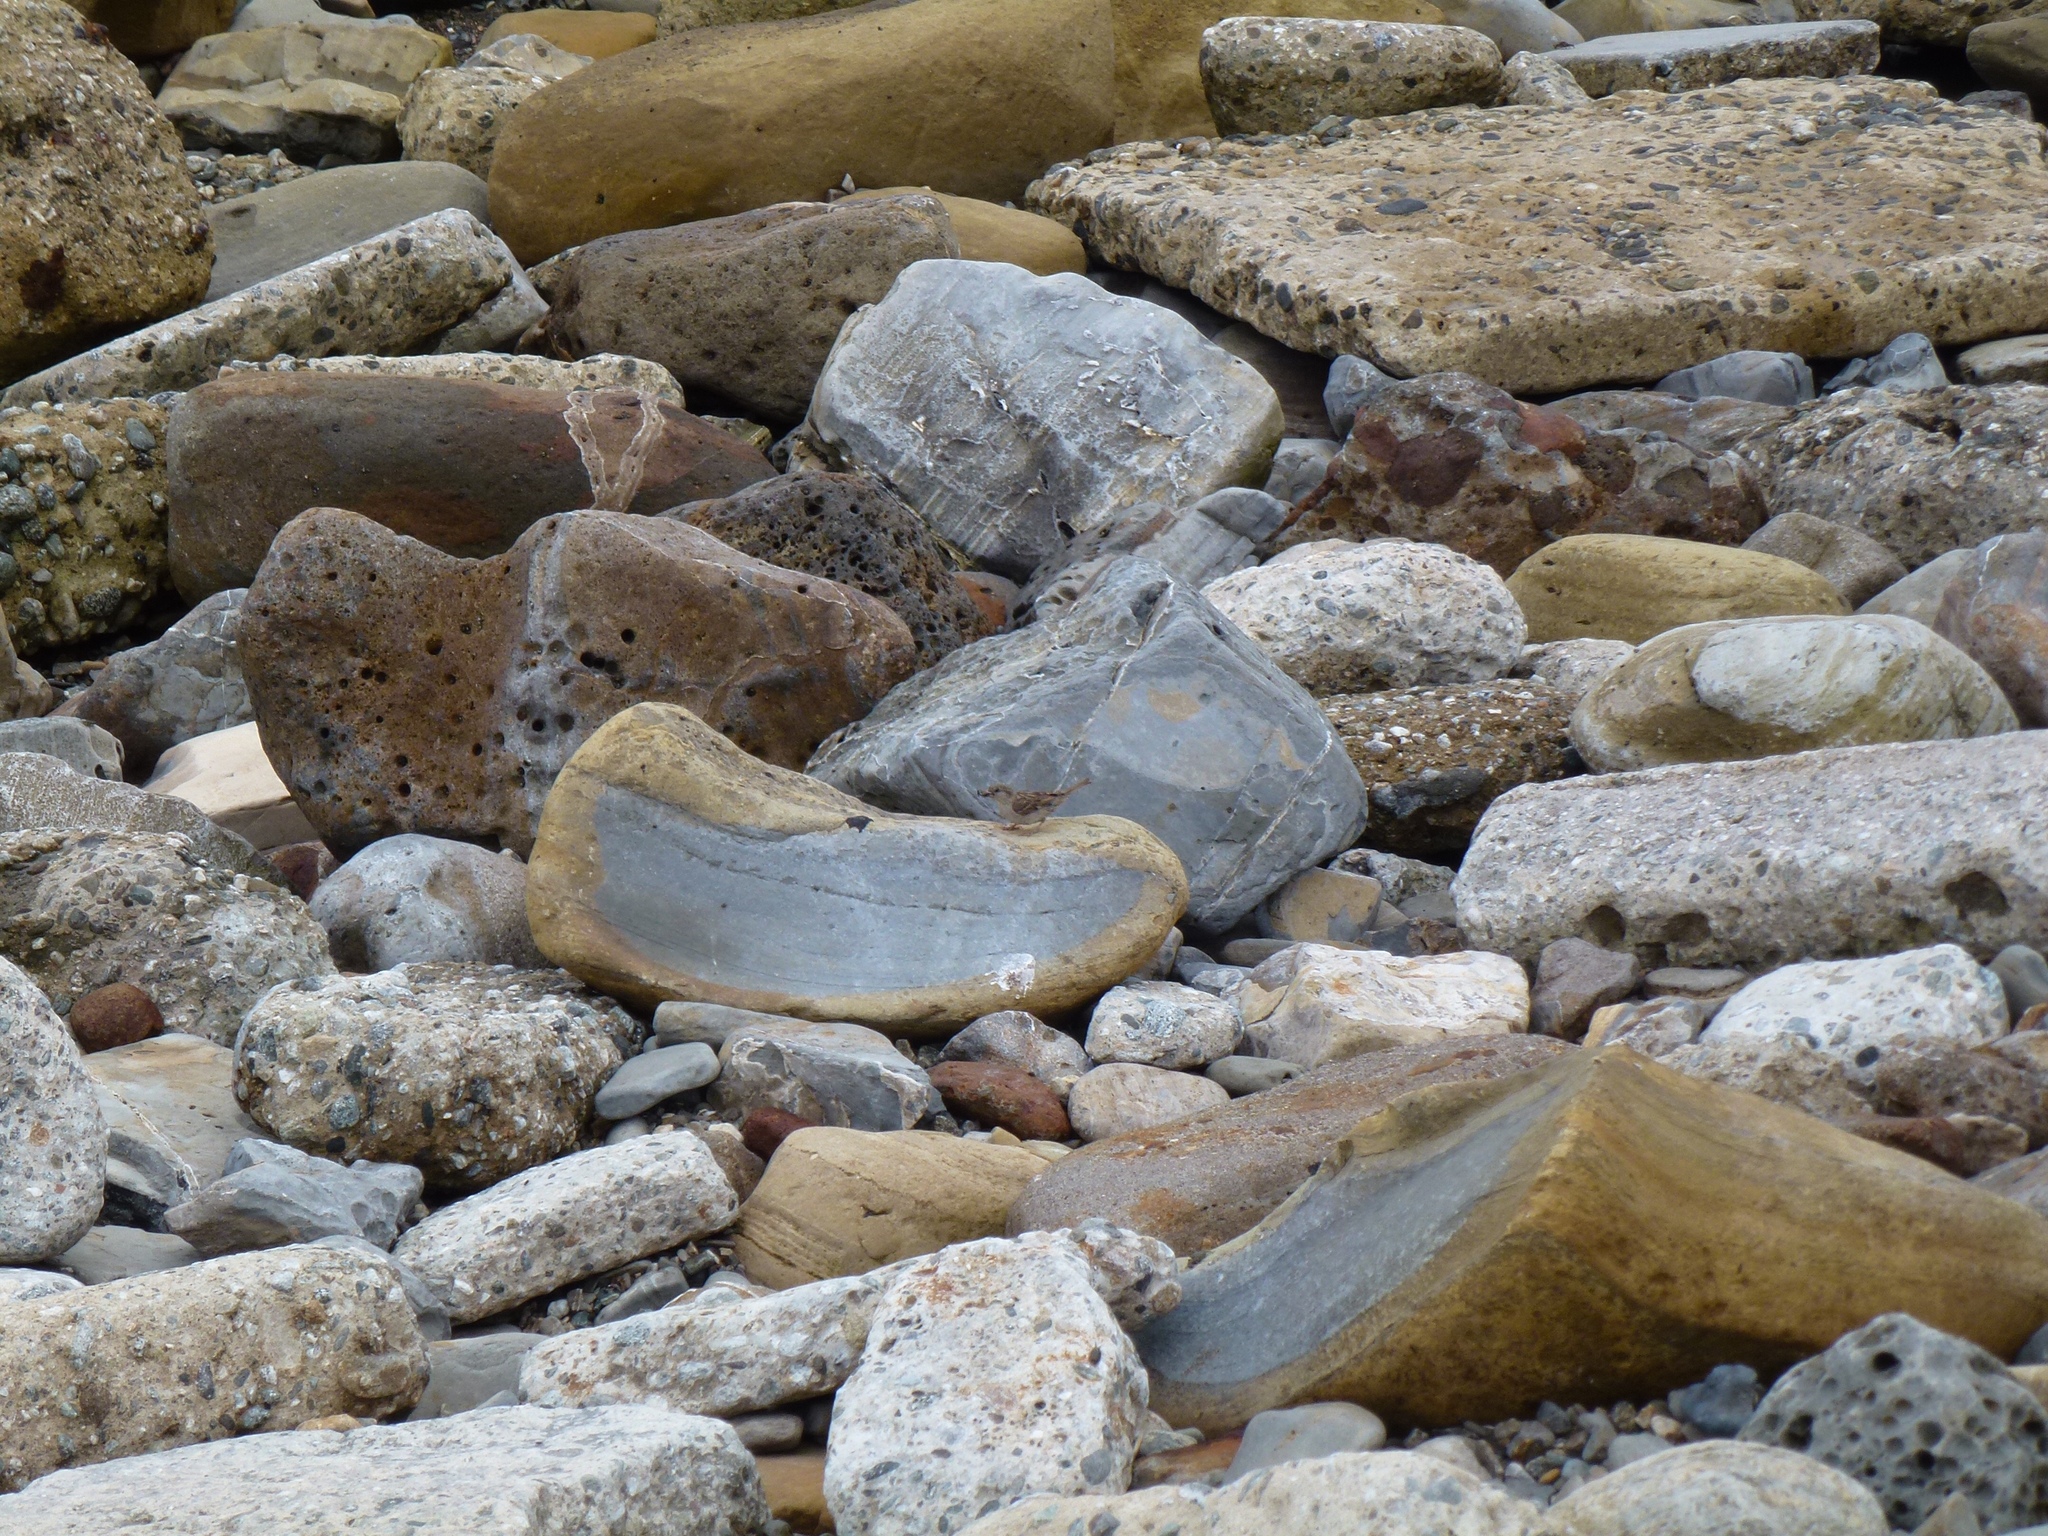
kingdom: Animalia
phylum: Chordata
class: Aves
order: Passeriformes
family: Passeridae
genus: Passer
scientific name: Passer domesticus
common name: House sparrow
